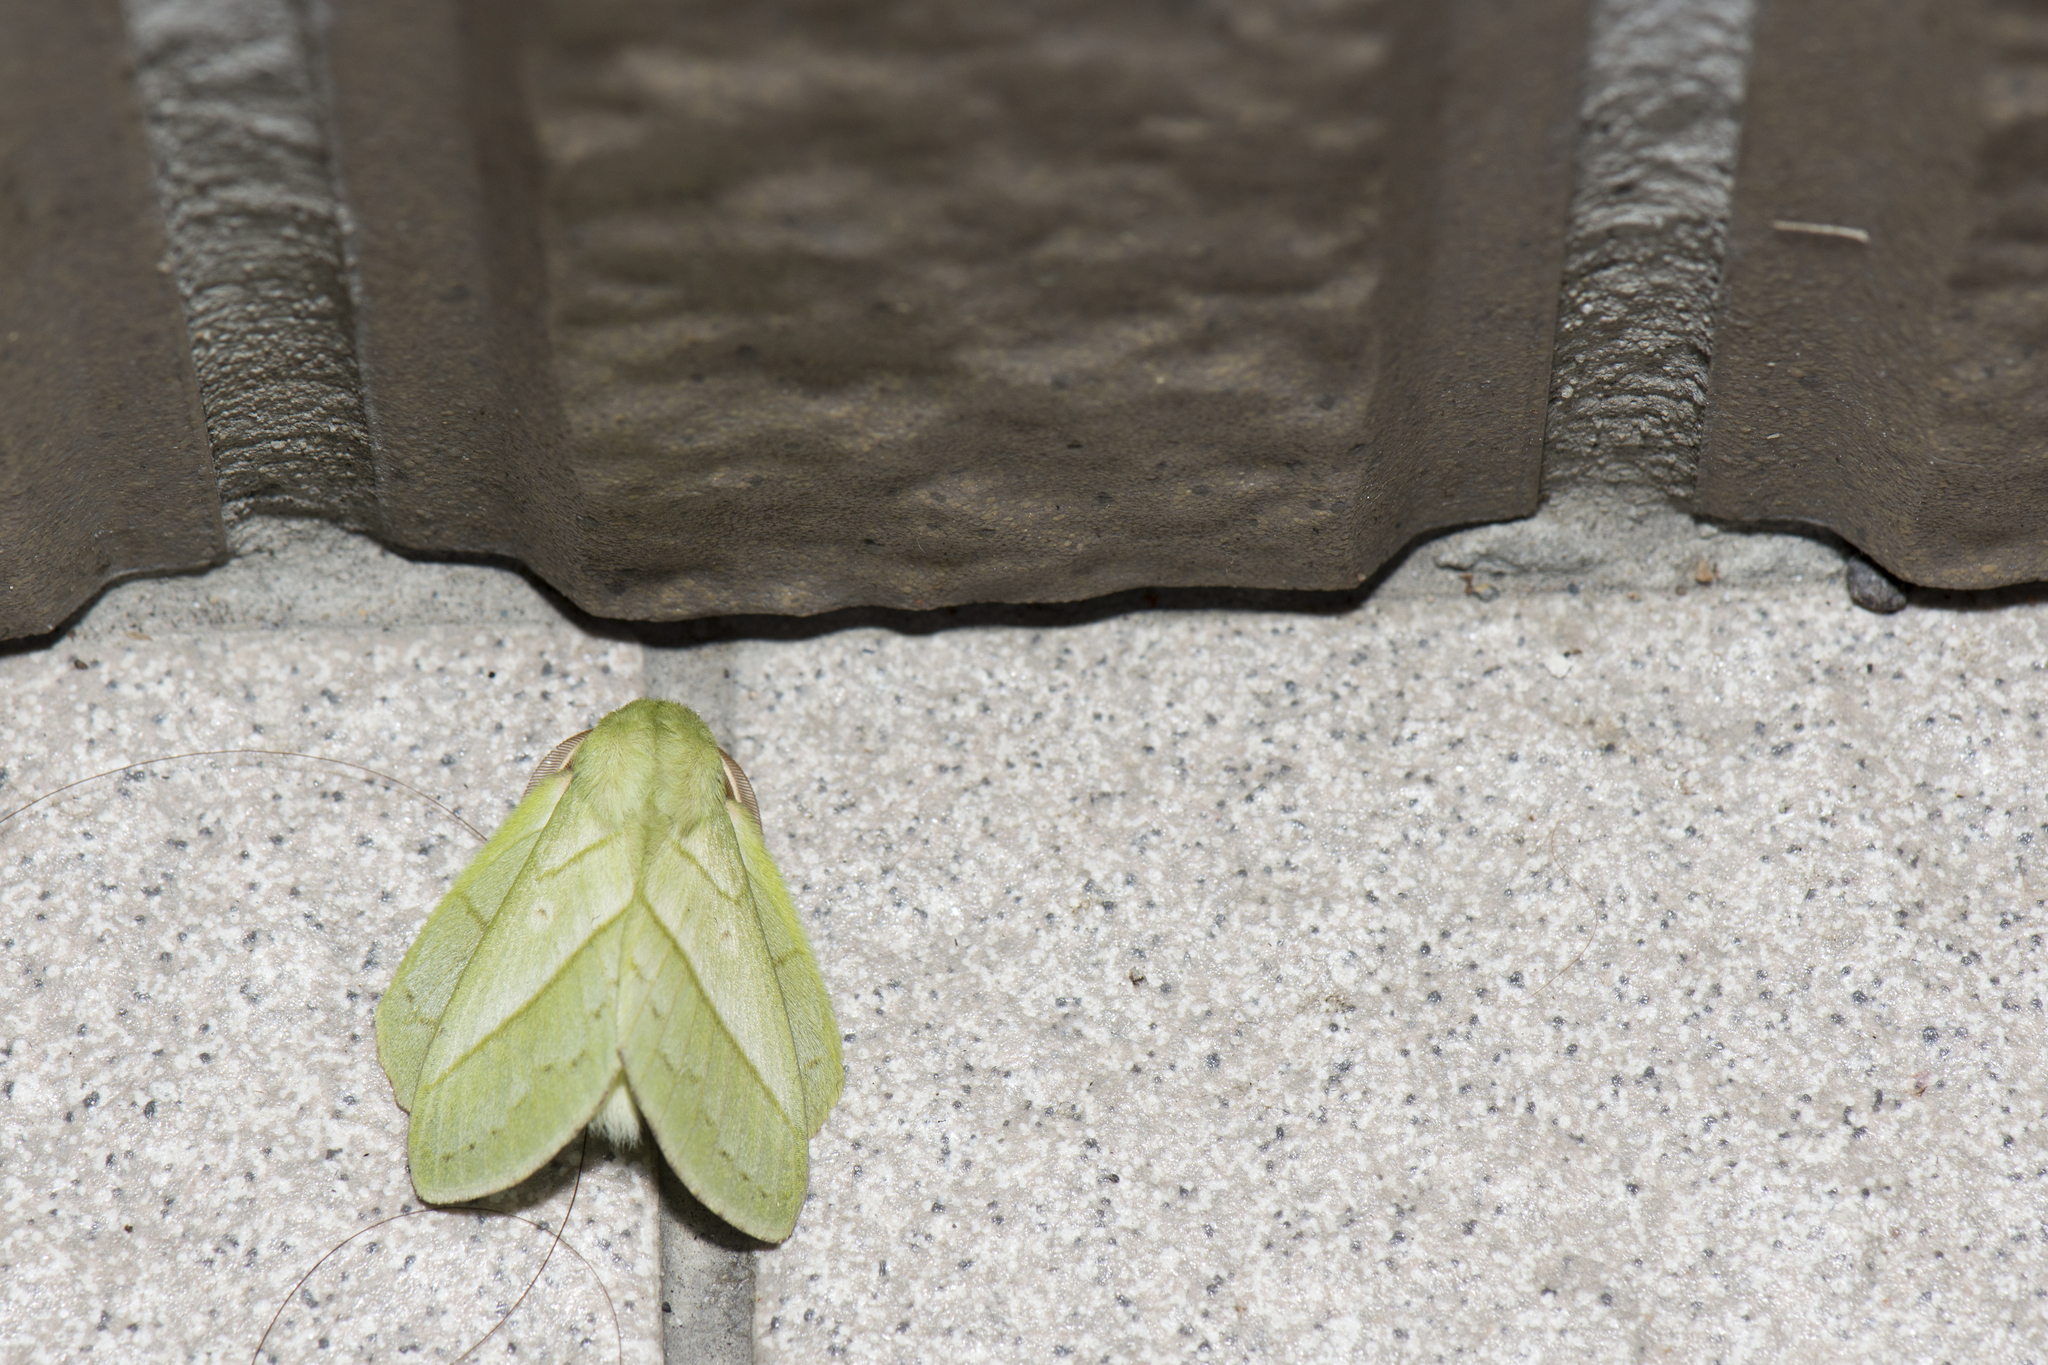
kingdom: Animalia
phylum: Arthropoda
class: Insecta
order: Lepidoptera
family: Lasiocampidae
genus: Trabala
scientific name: Trabala vishnou
